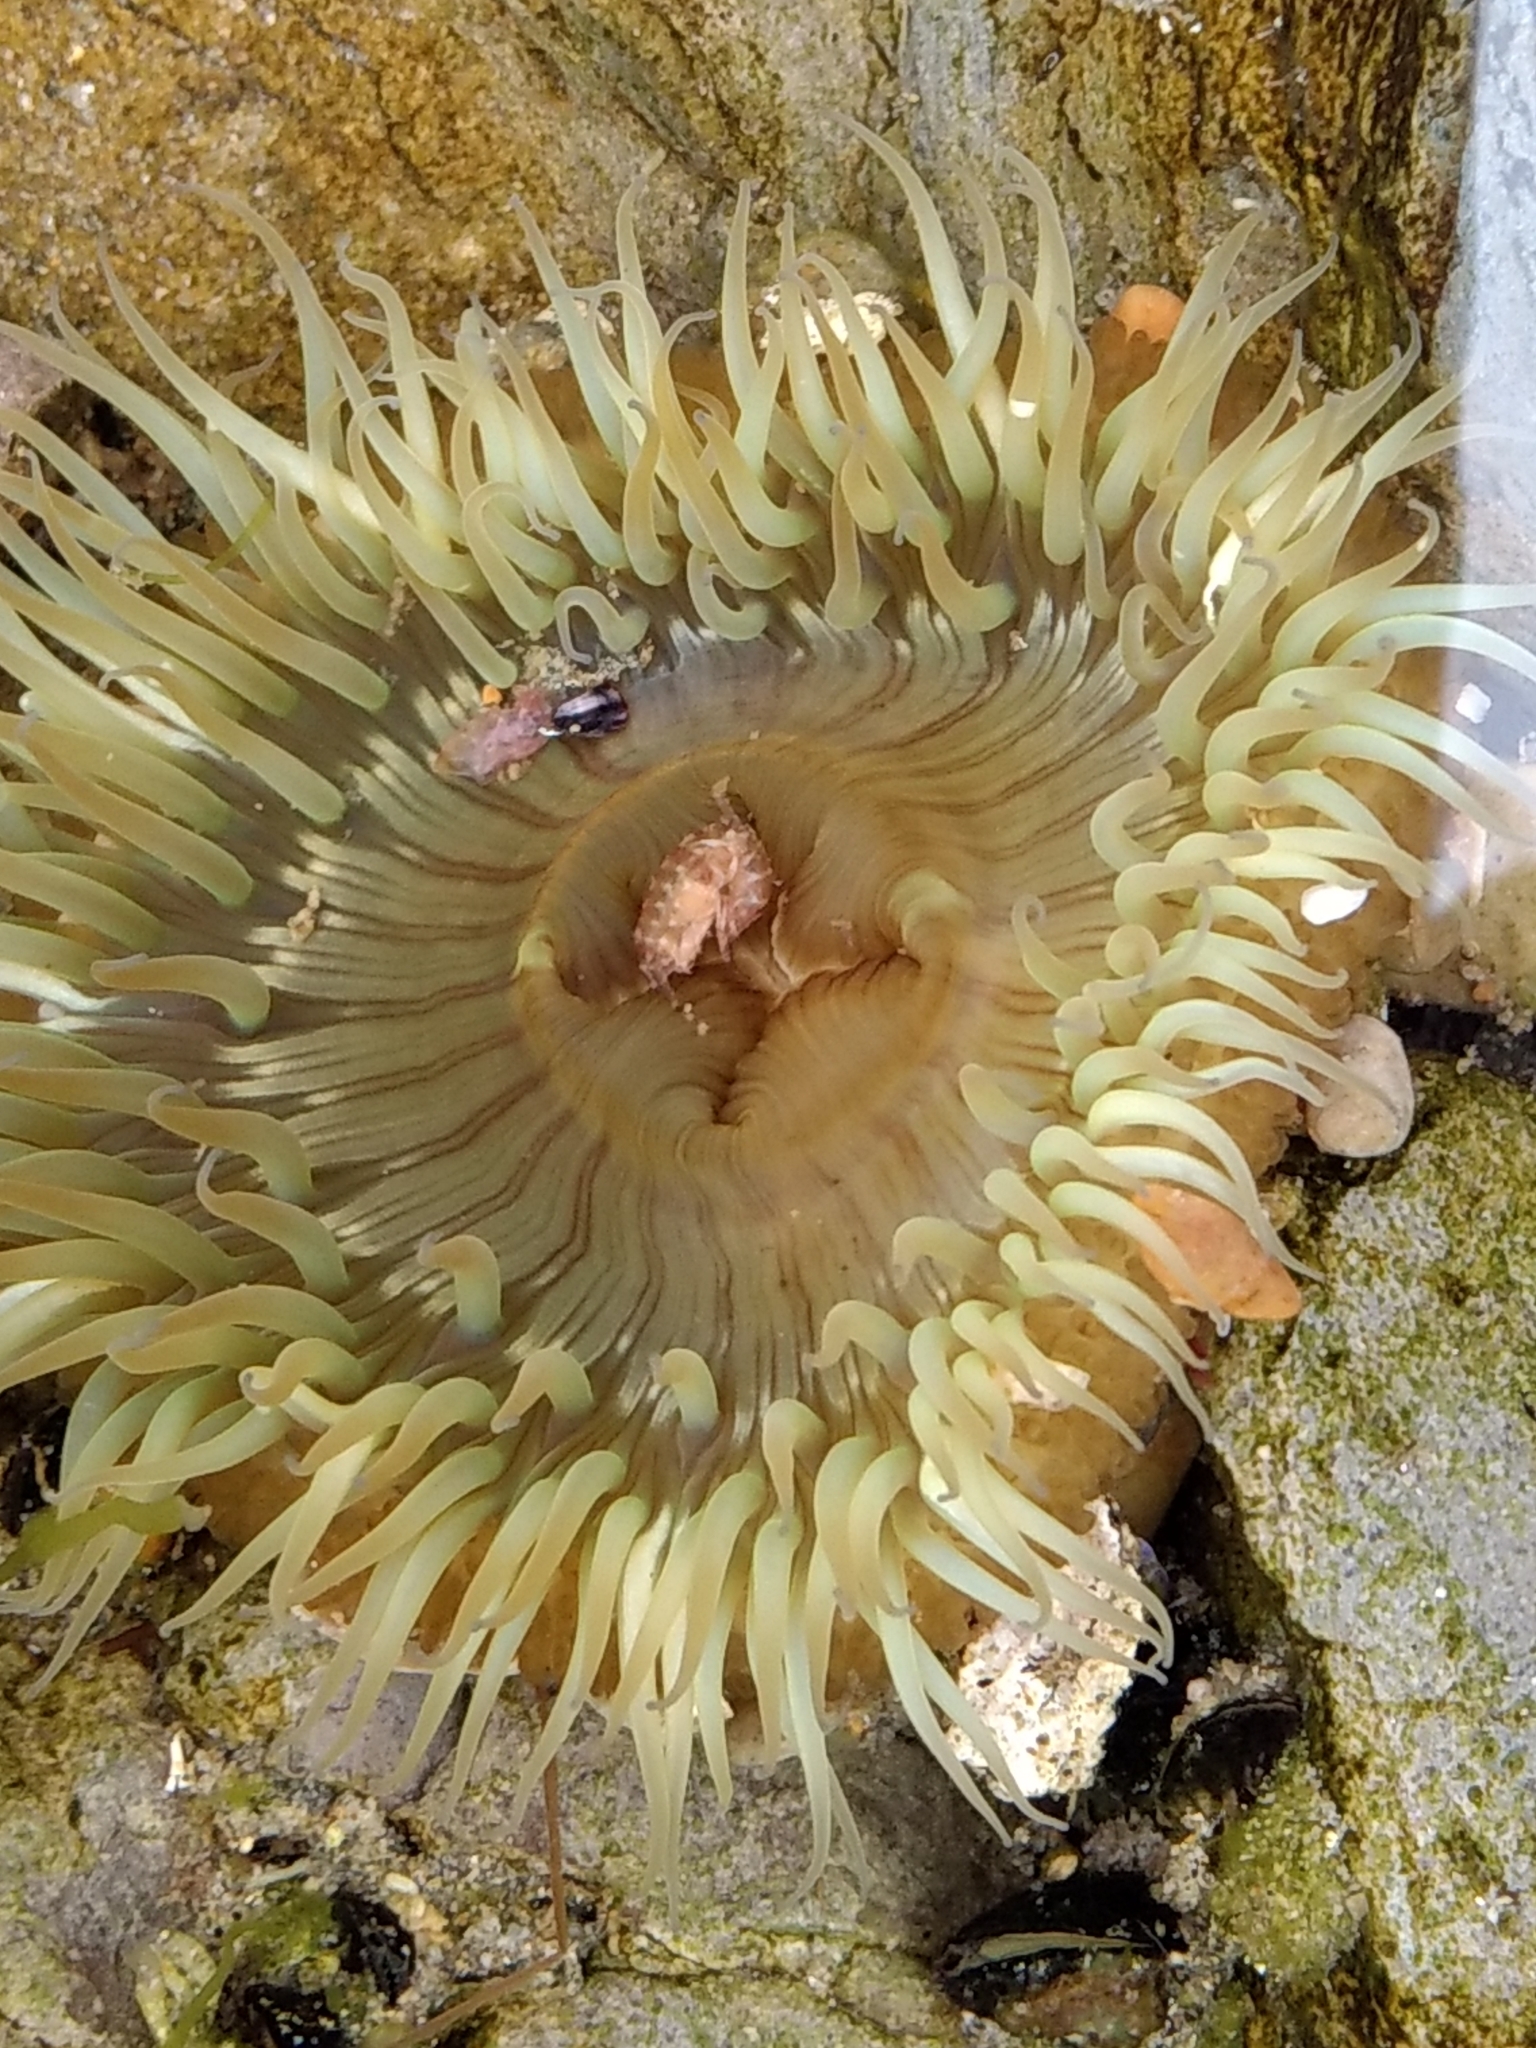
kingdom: Animalia
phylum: Cnidaria
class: Anthozoa
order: Actiniaria
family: Actiniidae
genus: Anthopleura
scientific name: Anthopleura sola
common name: Sun anemone
